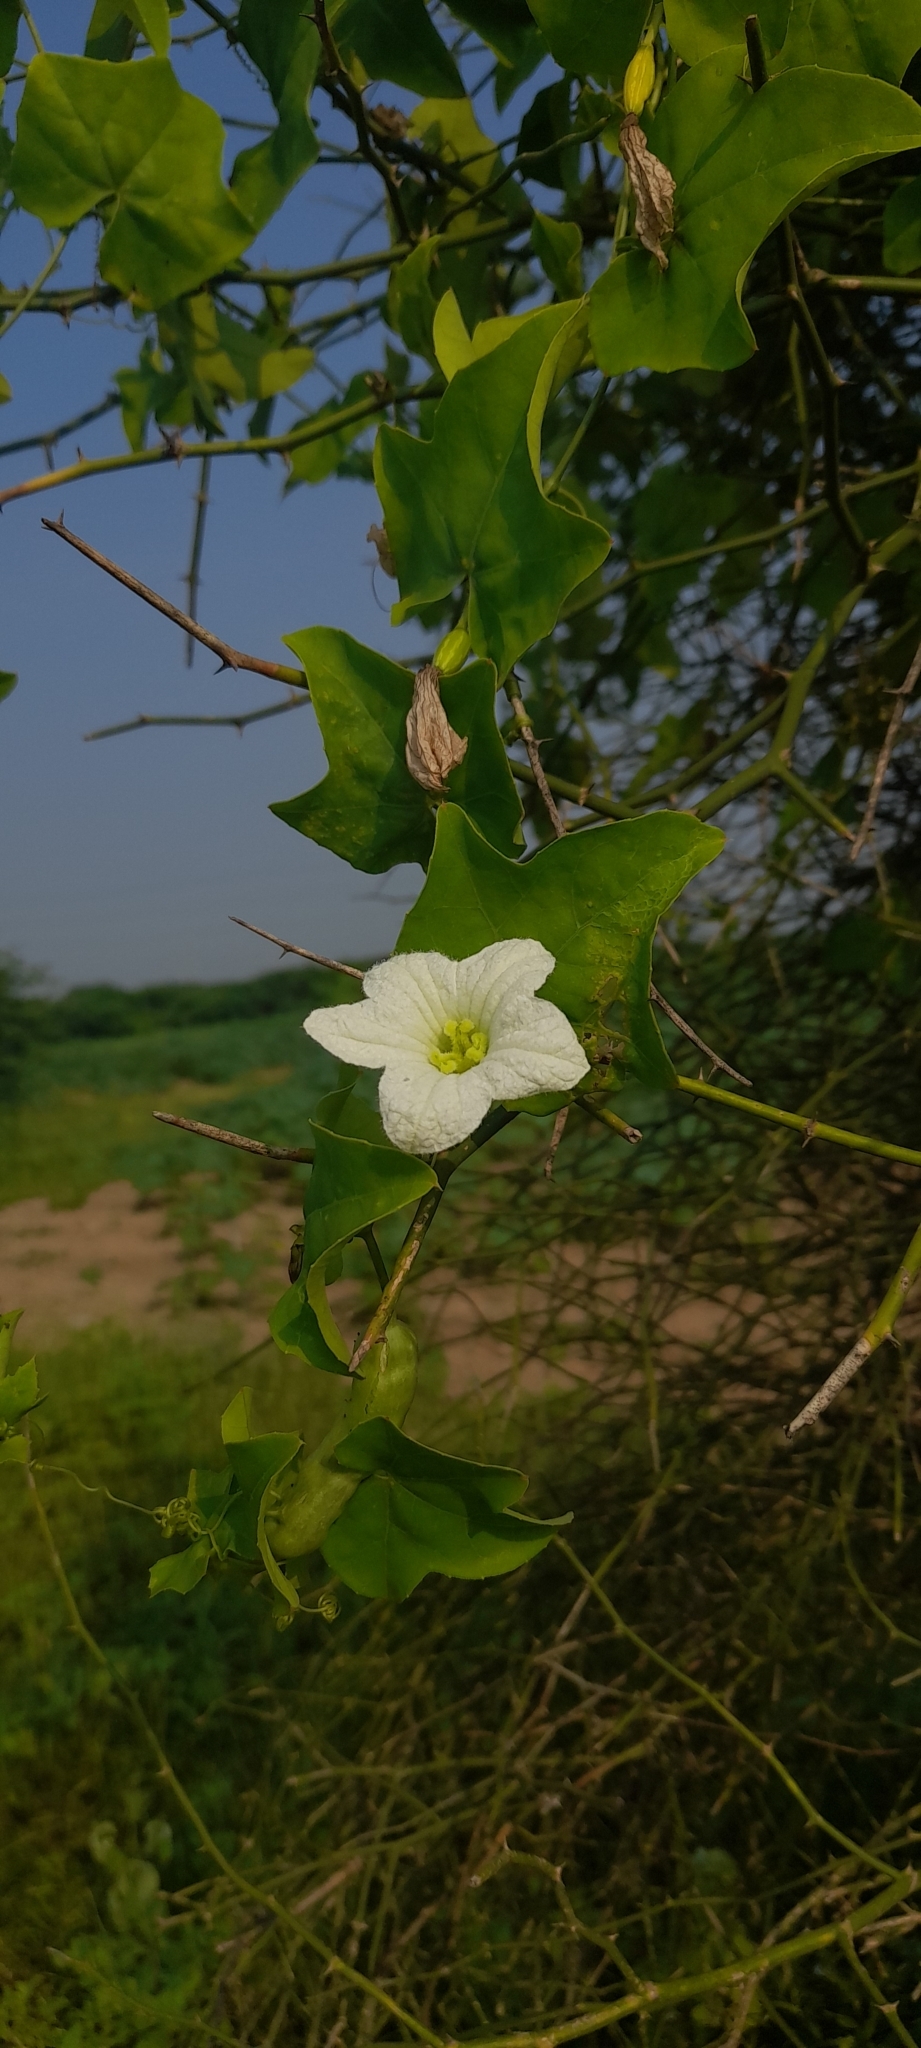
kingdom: Plantae
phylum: Tracheophyta
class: Magnoliopsida
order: Cucurbitales
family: Cucurbitaceae
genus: Coccinia
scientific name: Coccinia grandis
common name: Ivy gourd
